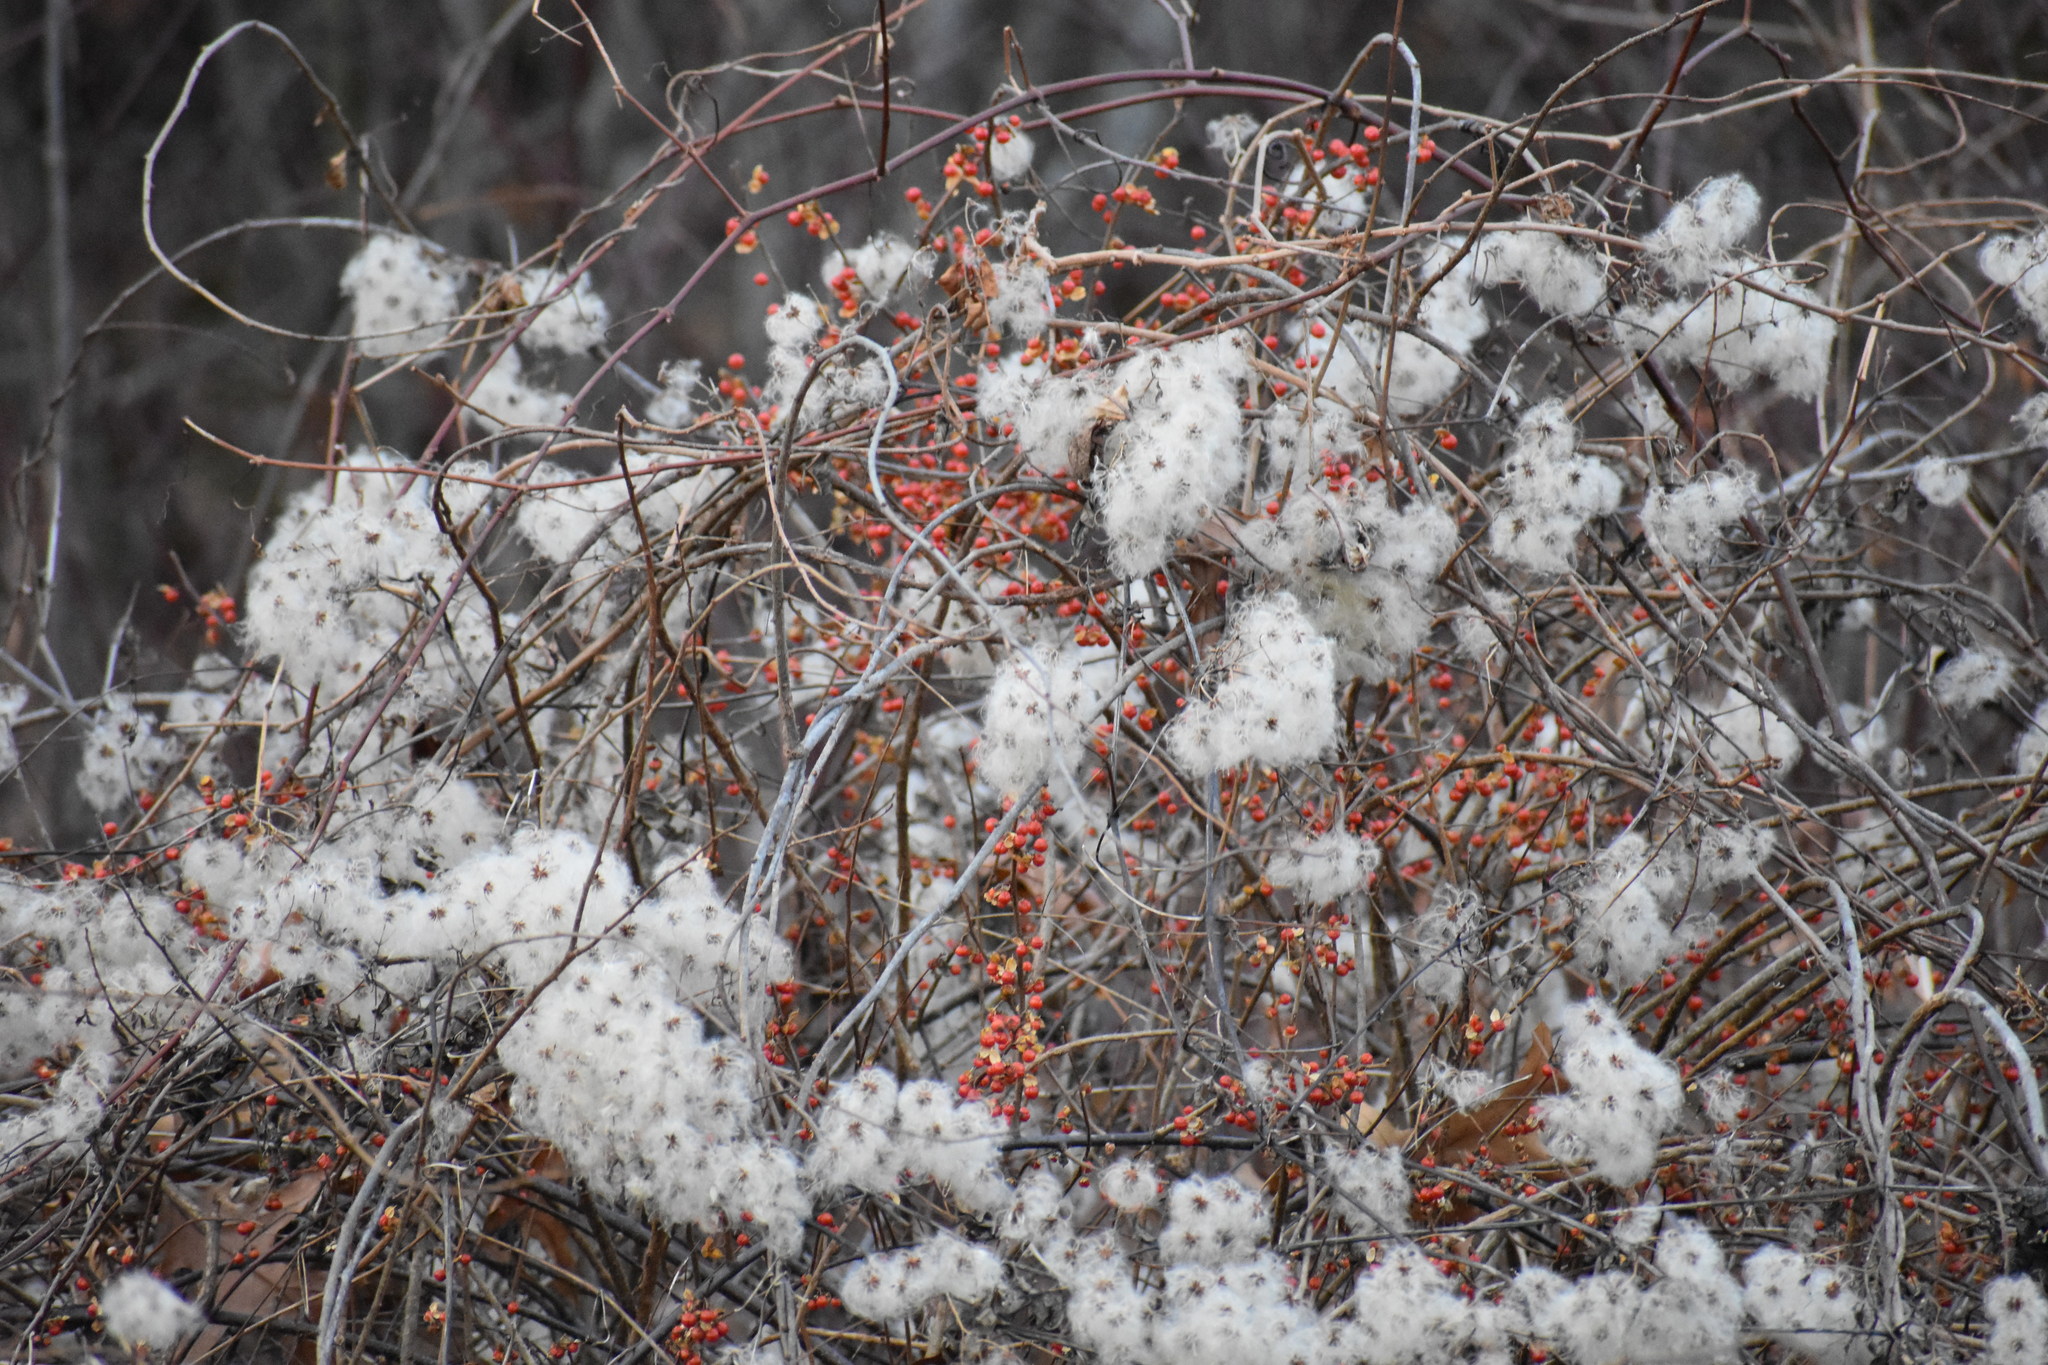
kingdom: Plantae
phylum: Tracheophyta
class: Magnoliopsida
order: Ranunculales
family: Ranunculaceae
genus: Clematis
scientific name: Clematis virginiana
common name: Virgin's-bower
